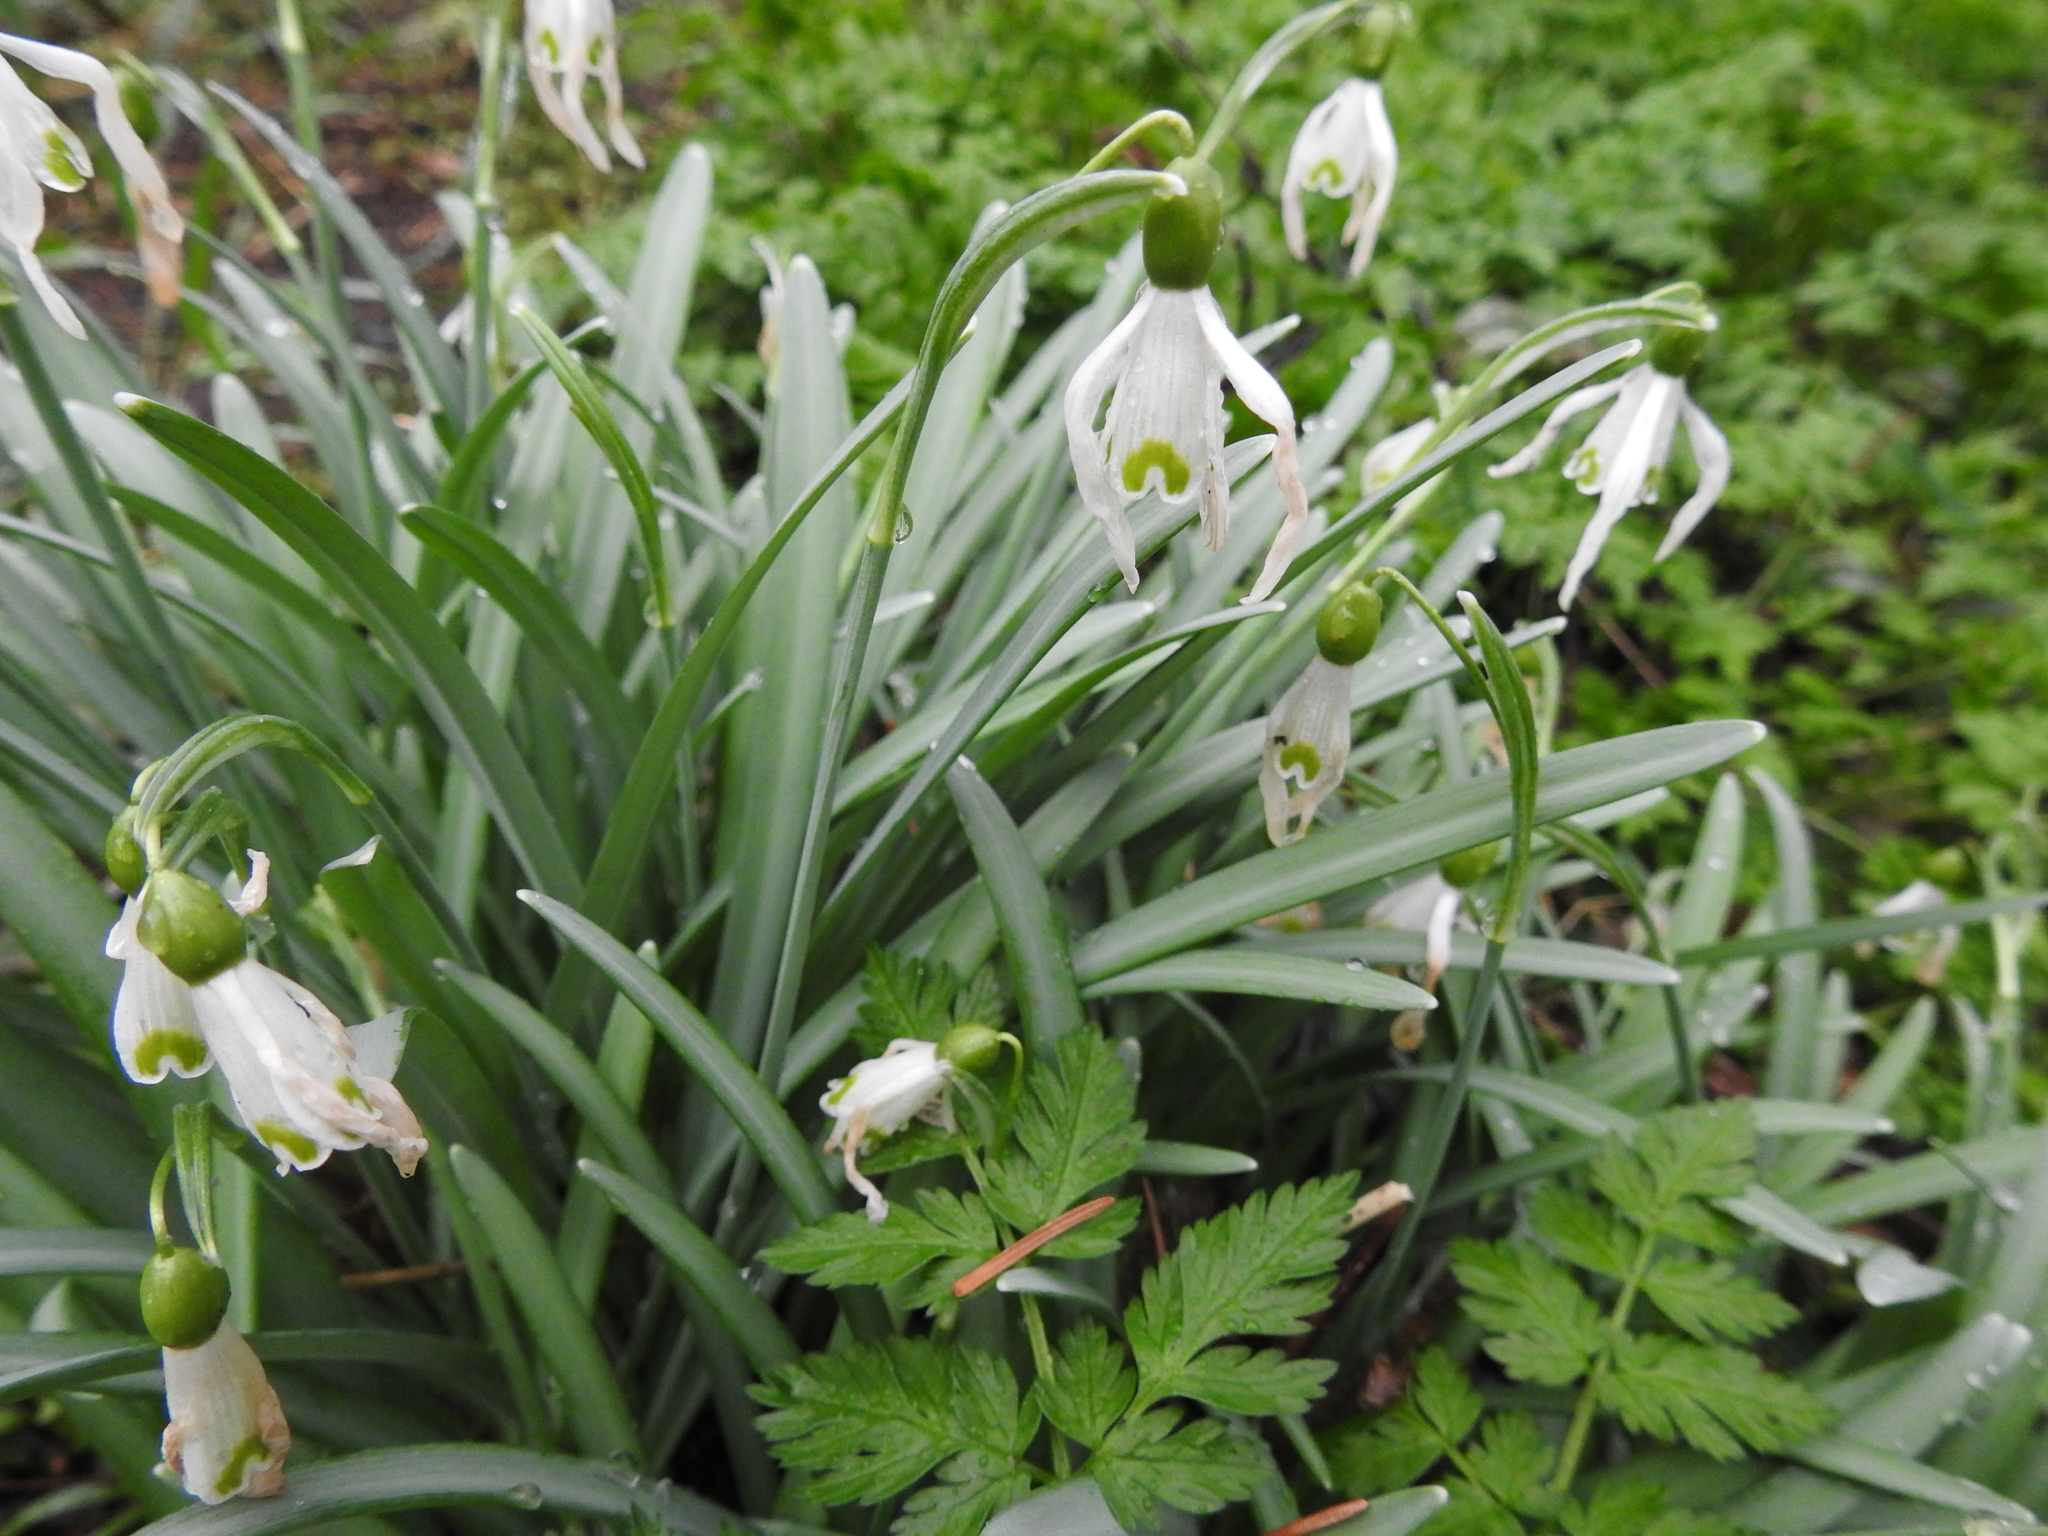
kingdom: Plantae
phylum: Tracheophyta
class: Liliopsida
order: Asparagales
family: Amaryllidaceae
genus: Galanthus
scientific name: Galanthus nivalis
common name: Snowdrop
